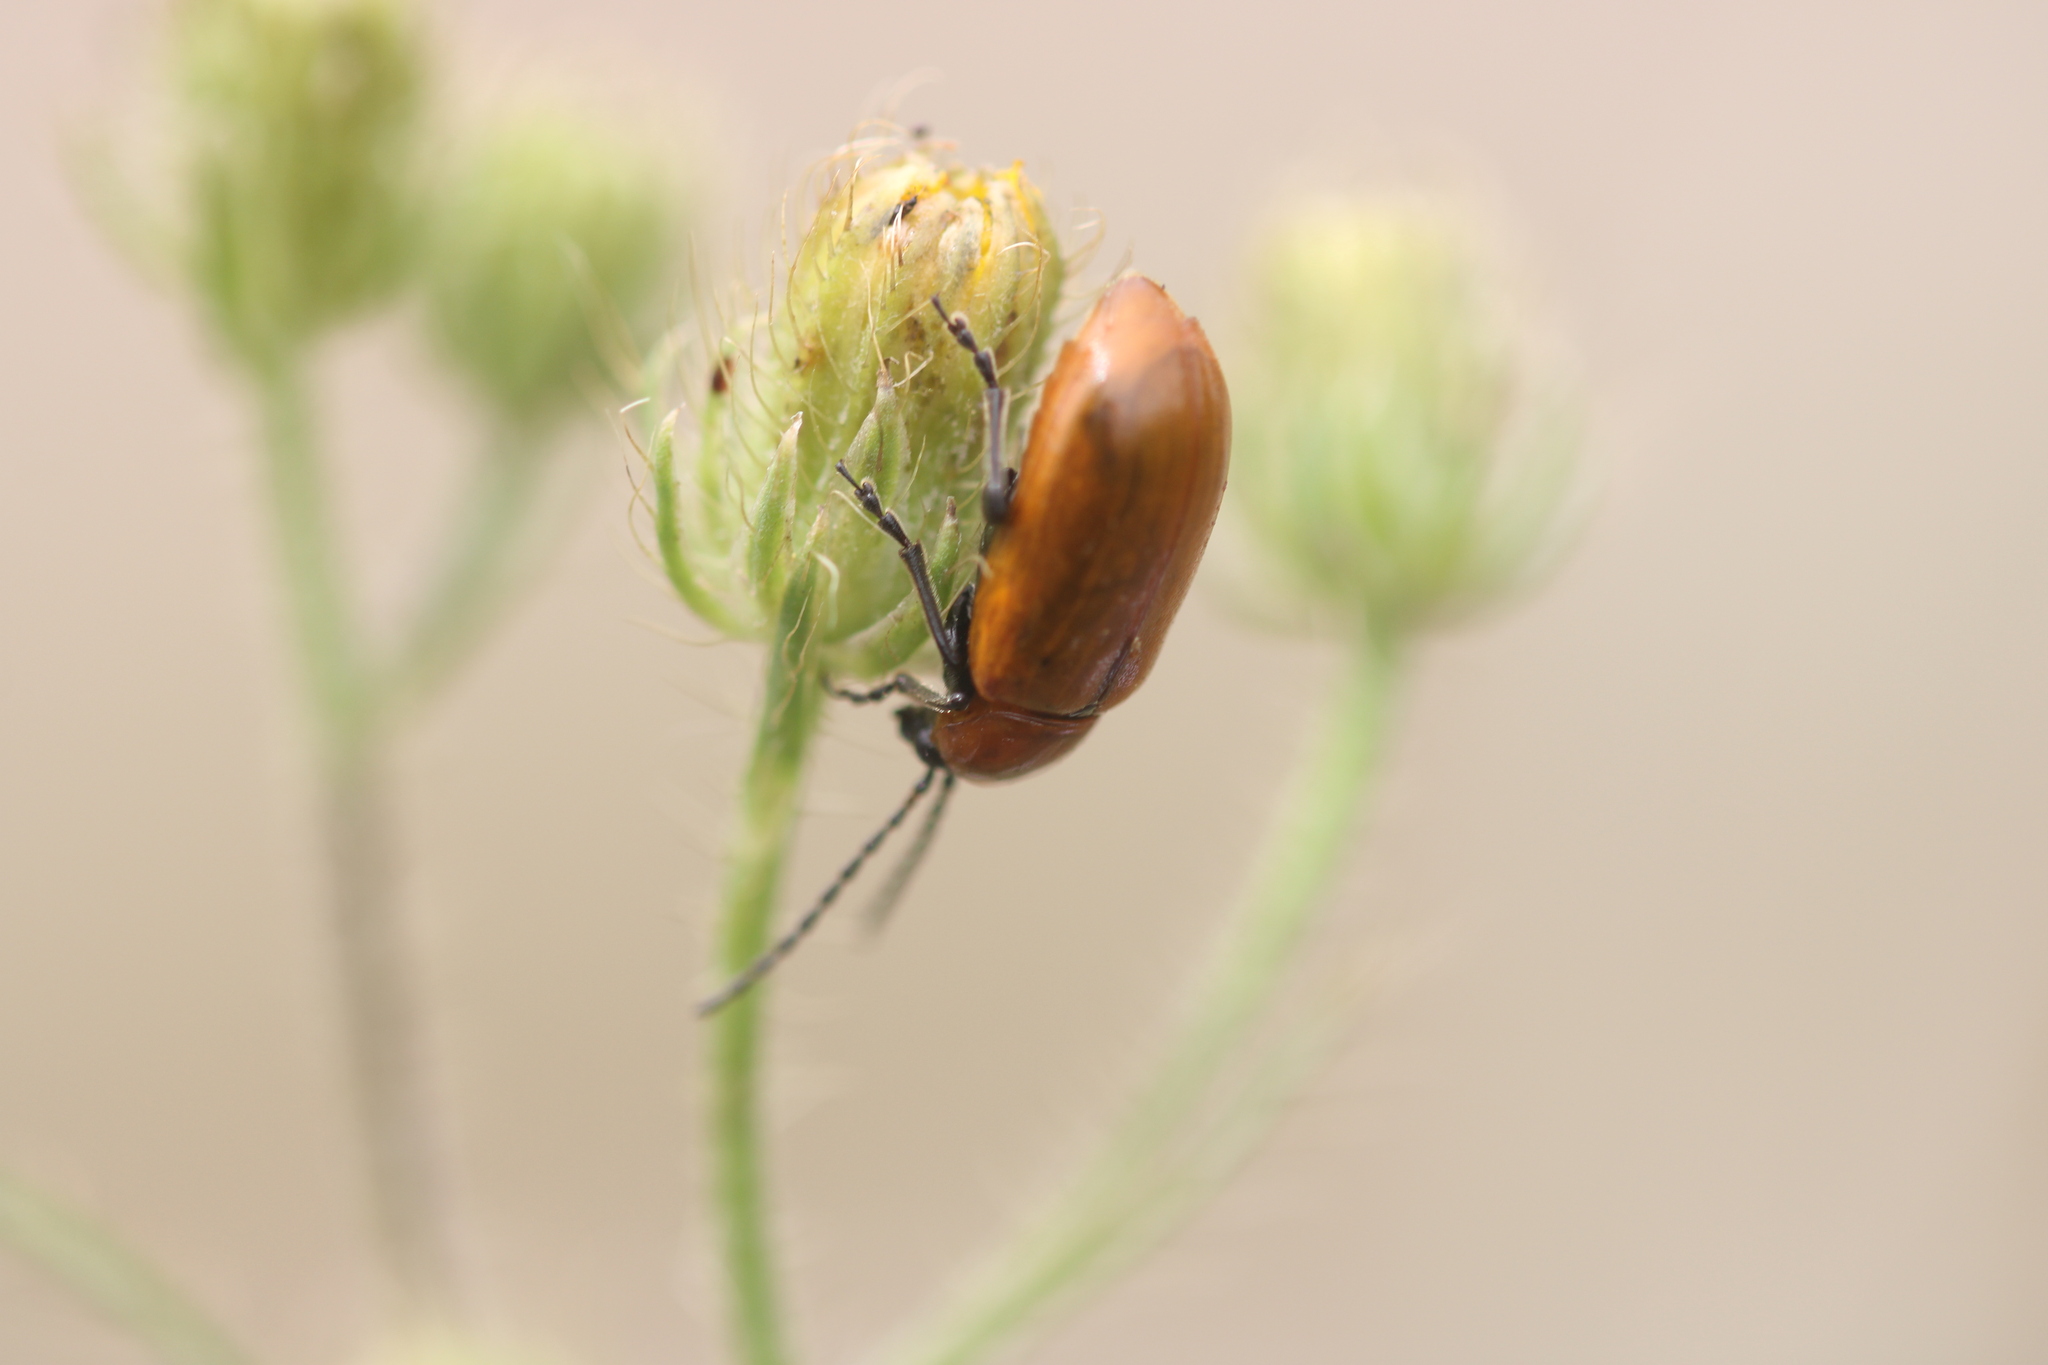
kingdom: Animalia
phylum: Arthropoda
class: Insecta
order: Coleoptera
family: Chrysomelidae
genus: Exosoma
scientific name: Exosoma lusitanicum
